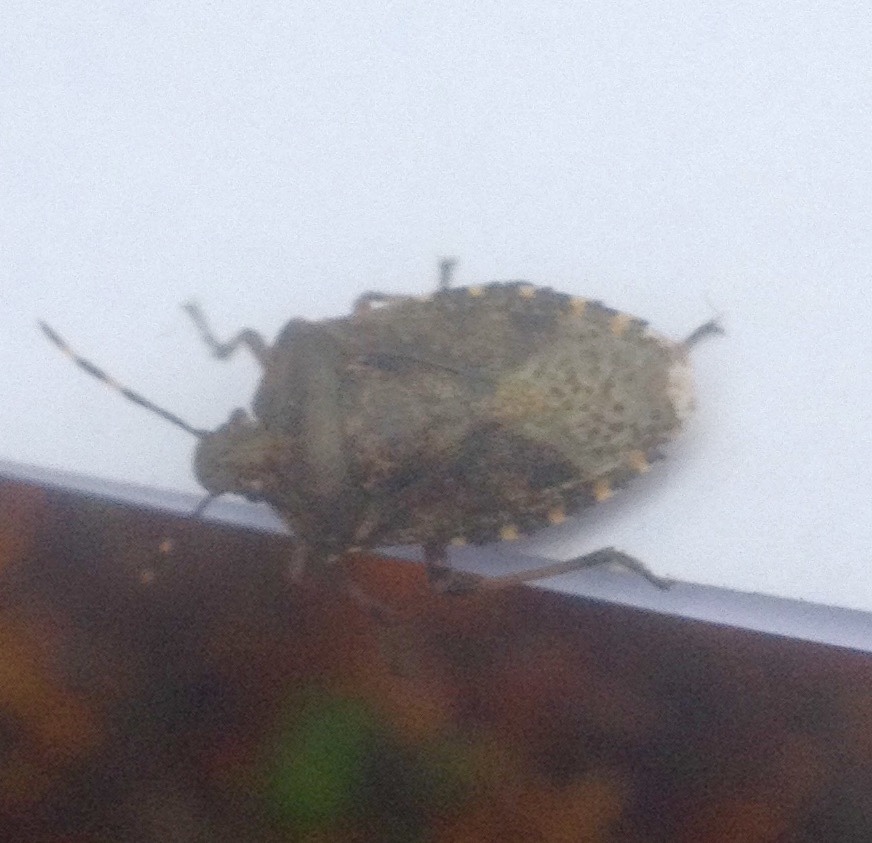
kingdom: Animalia
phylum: Arthropoda
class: Insecta
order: Hemiptera
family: Pentatomidae
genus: Rhaphigaster
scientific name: Rhaphigaster nebulosa
